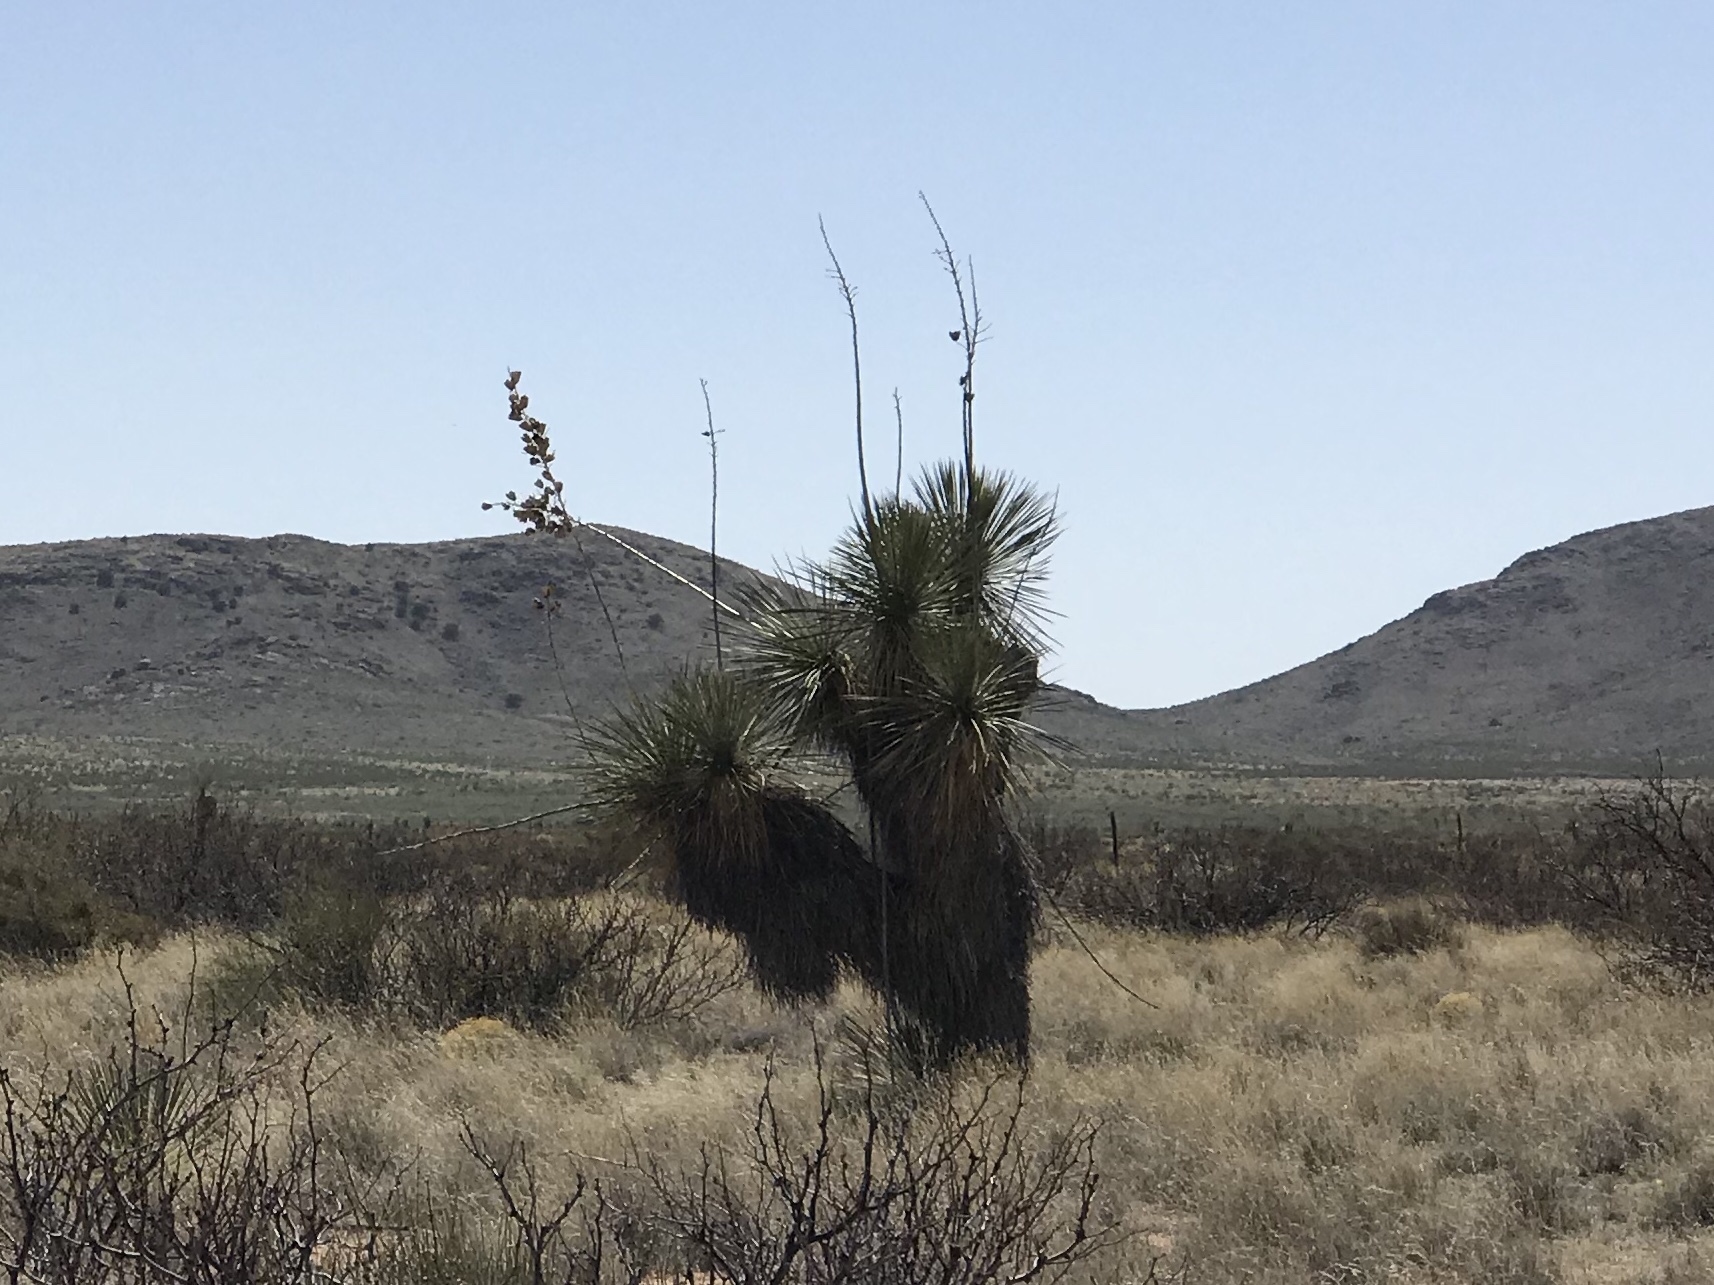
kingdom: Plantae
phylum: Tracheophyta
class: Liliopsida
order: Asparagales
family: Asparagaceae
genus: Yucca
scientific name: Yucca elata
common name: Palmella
